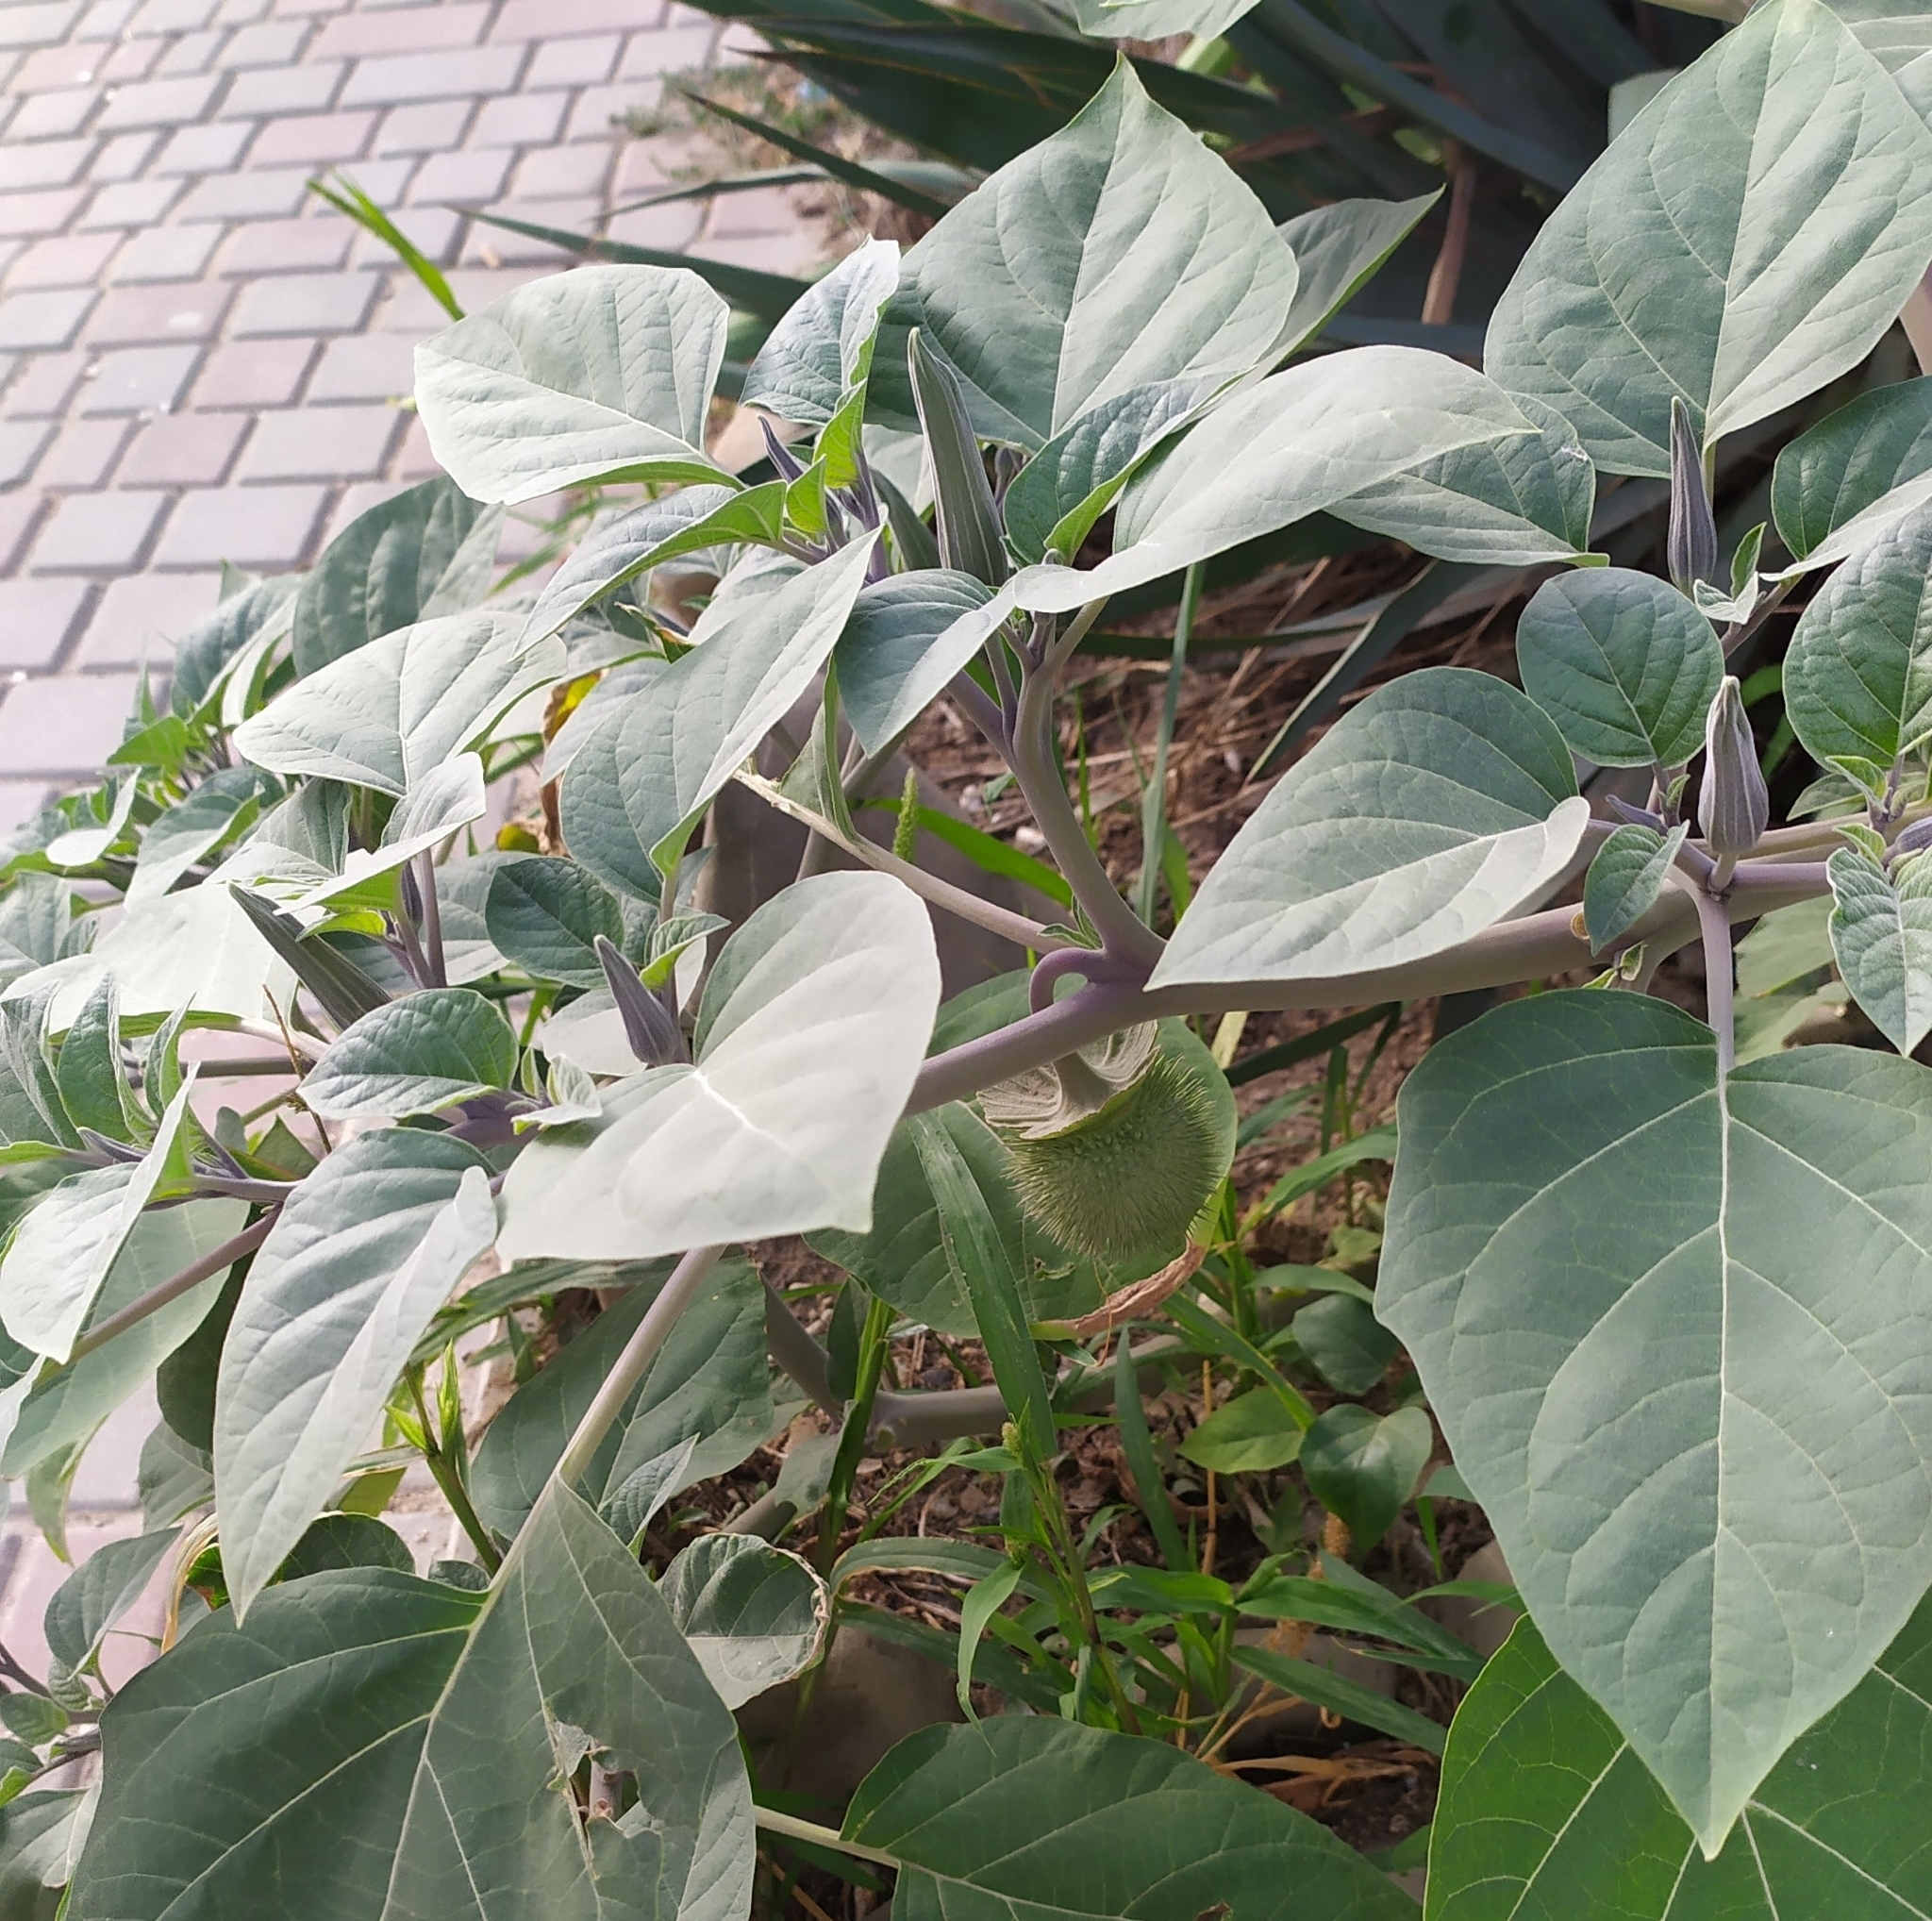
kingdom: Plantae
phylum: Tracheophyta
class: Magnoliopsida
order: Solanales
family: Solanaceae
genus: Datura
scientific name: Datura innoxia
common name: Downy thorn-apple
